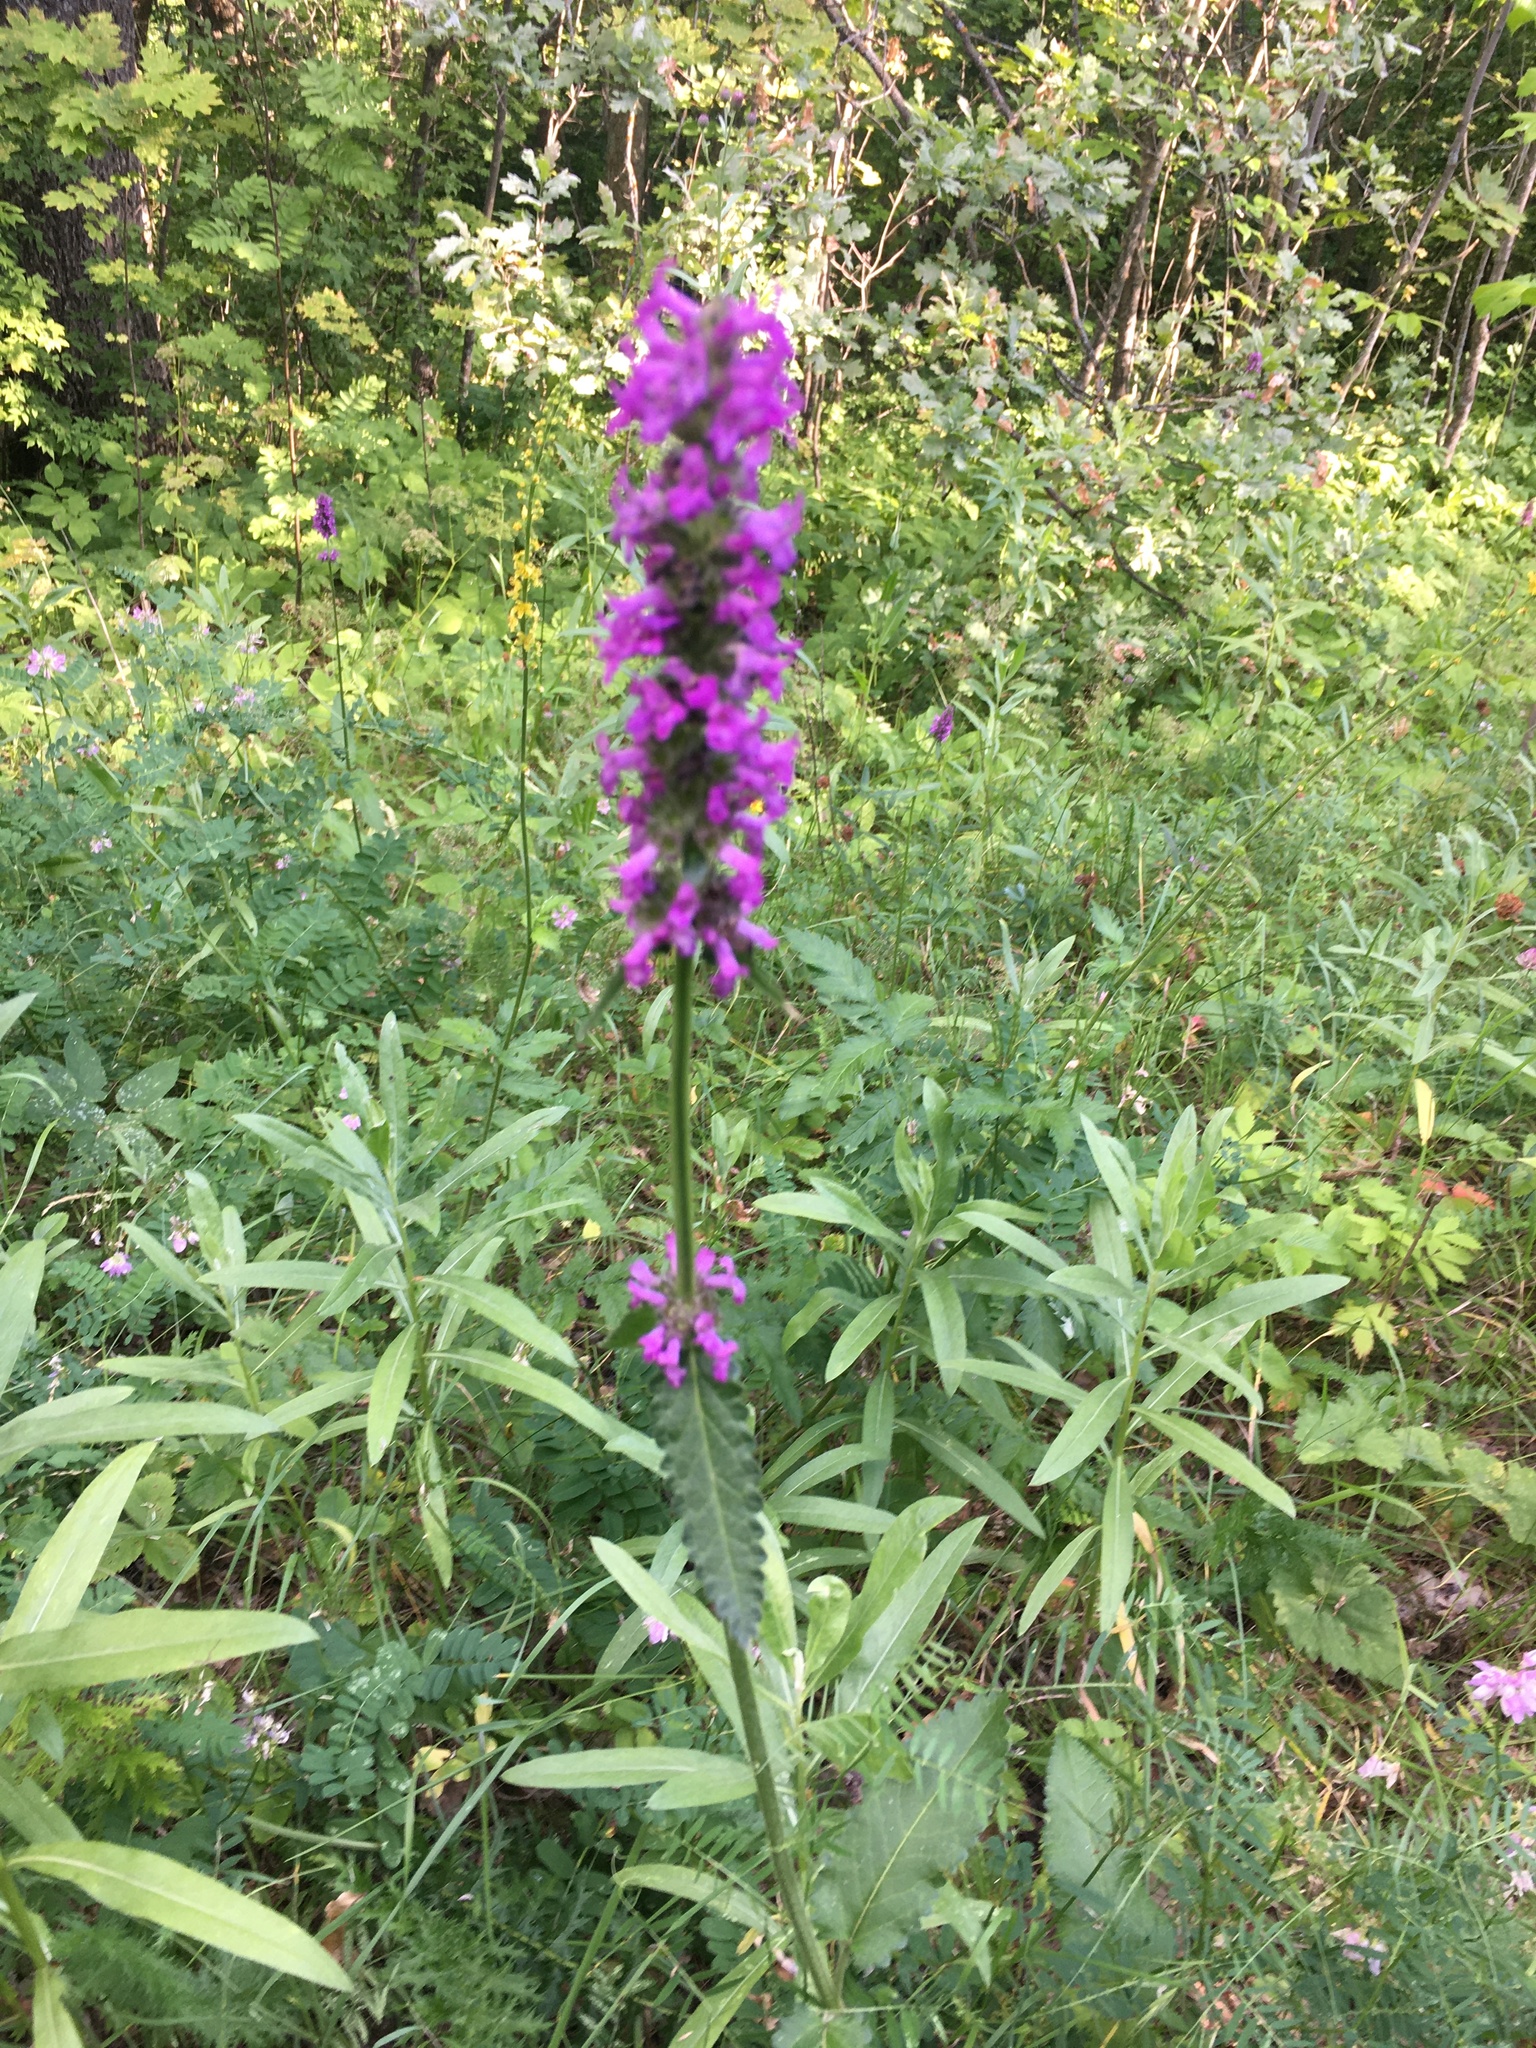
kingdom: Plantae
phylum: Tracheophyta
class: Magnoliopsida
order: Lamiales
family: Lamiaceae
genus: Betonica
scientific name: Betonica officinalis
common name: Bishop's-wort
